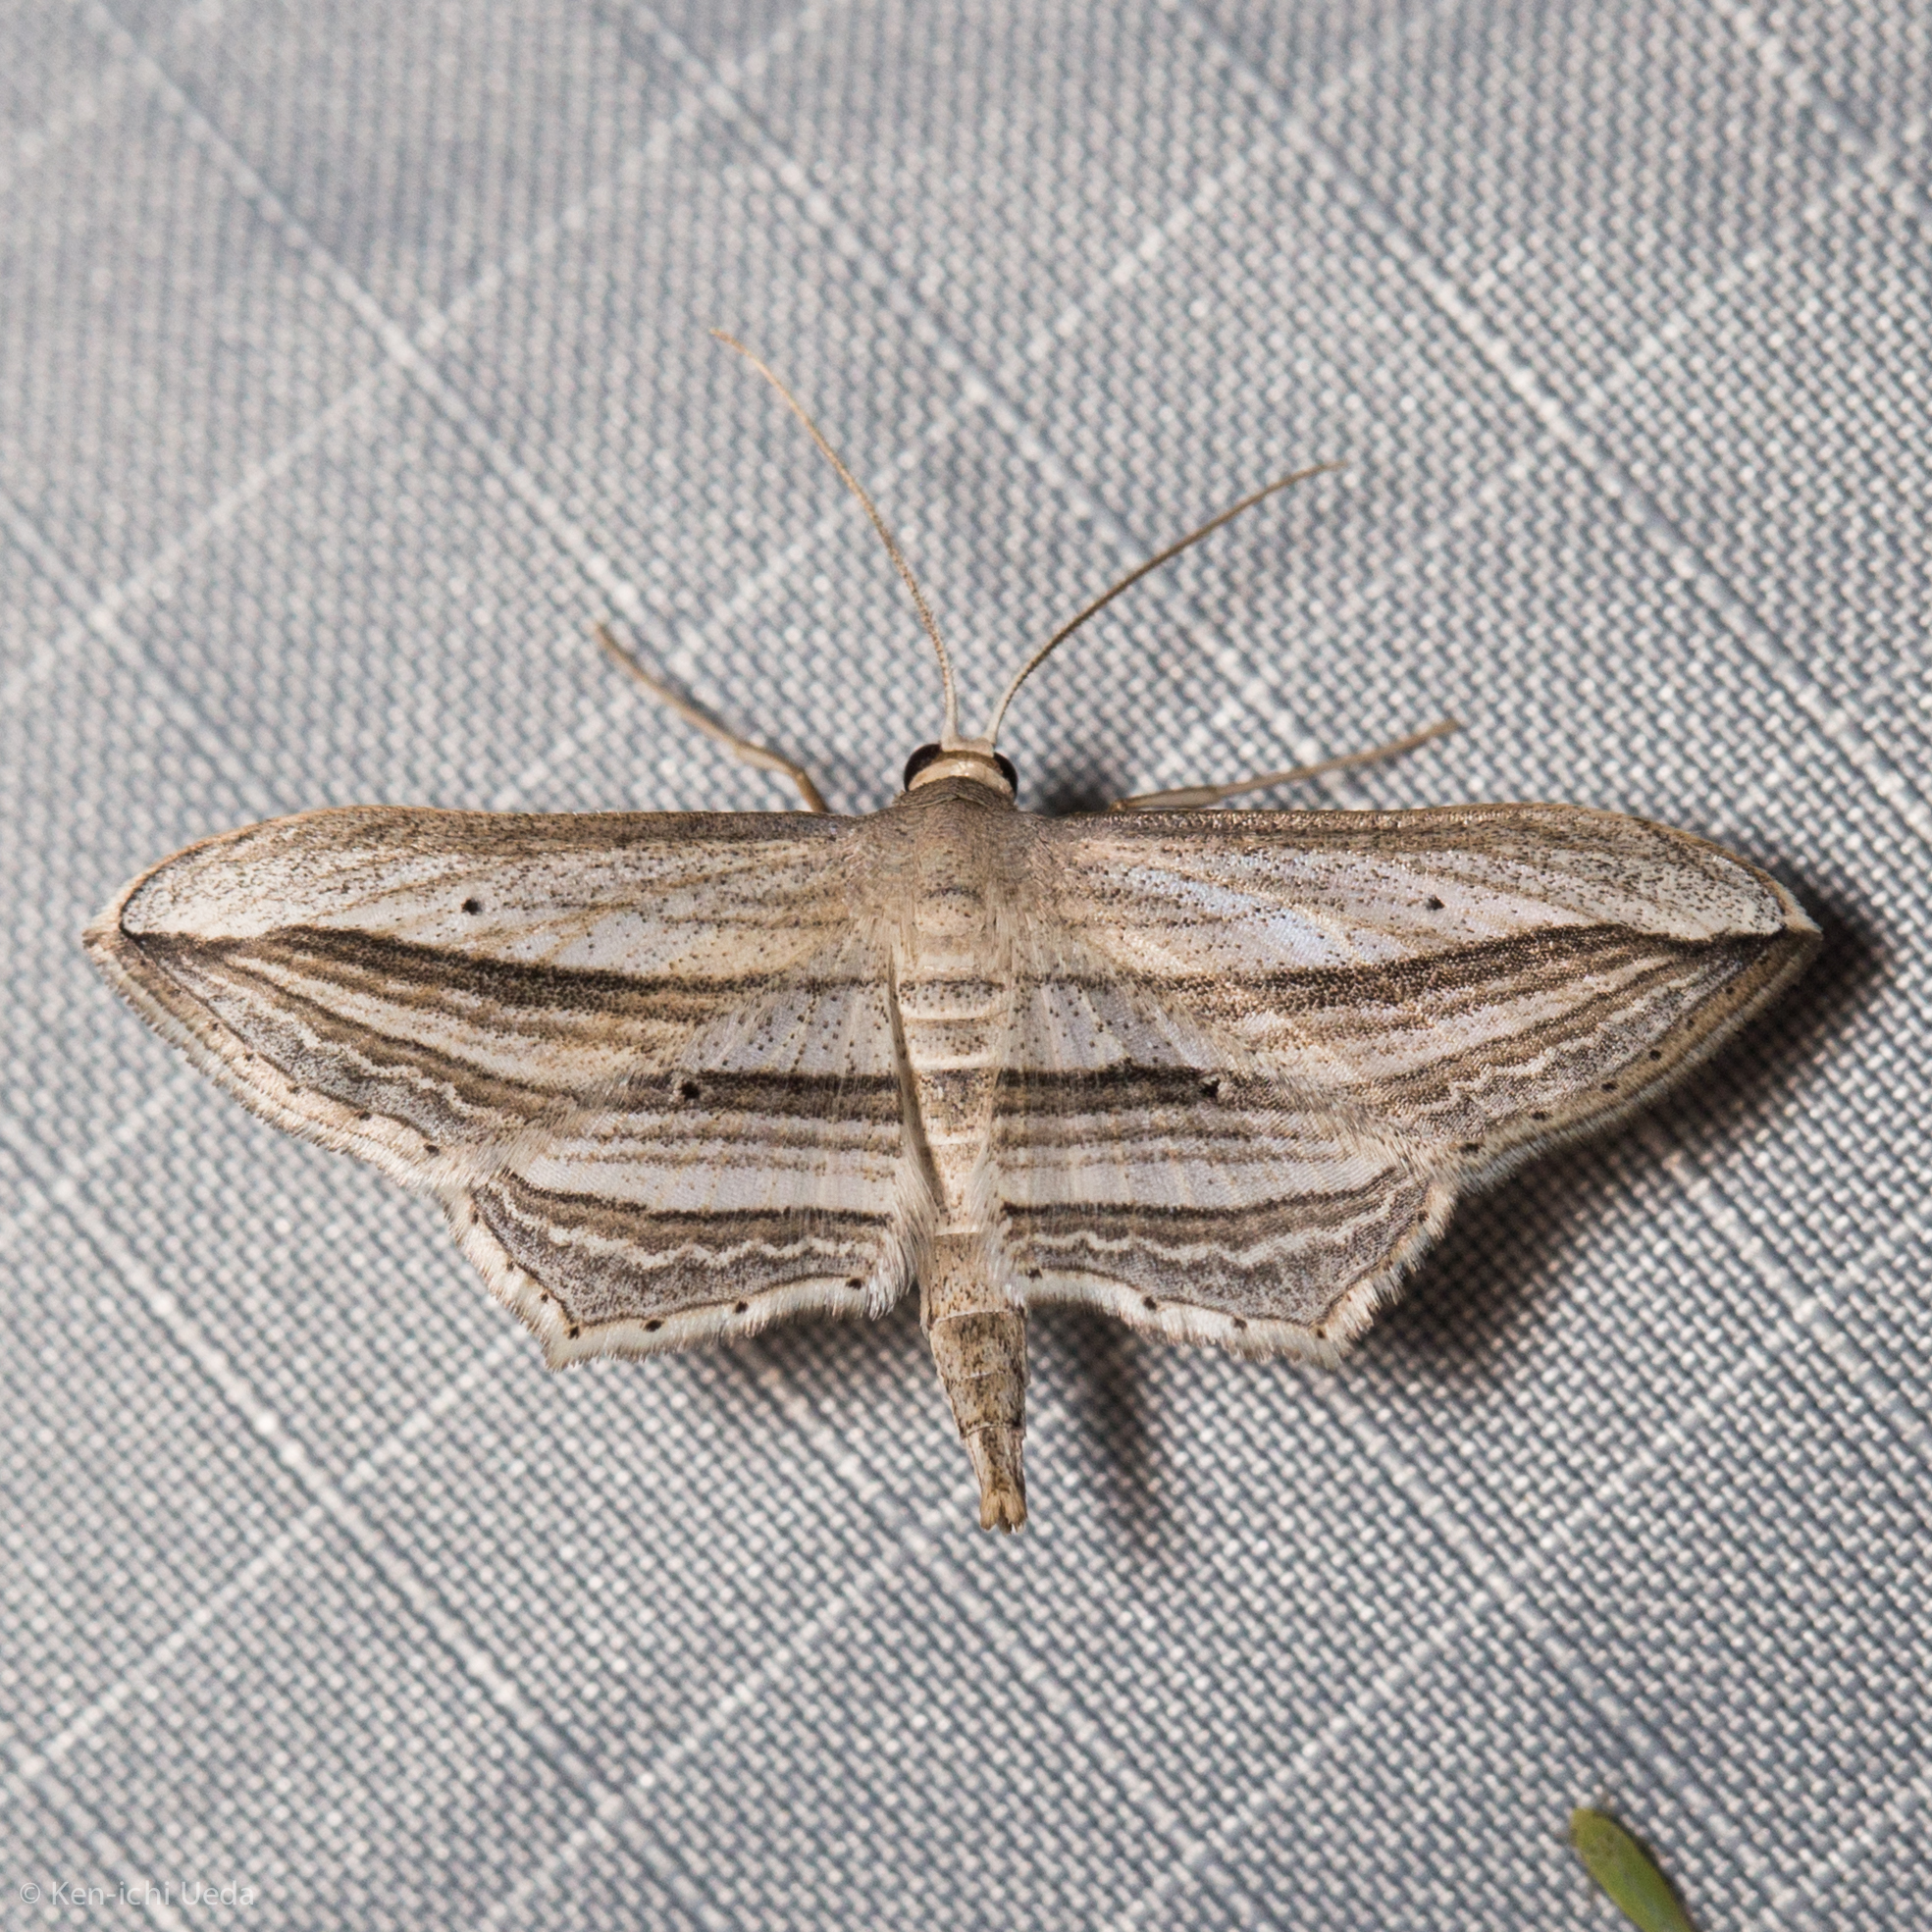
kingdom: Animalia
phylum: Arthropoda
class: Insecta
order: Lepidoptera
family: Geometridae
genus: Arcobara
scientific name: Arcobara multilineata
